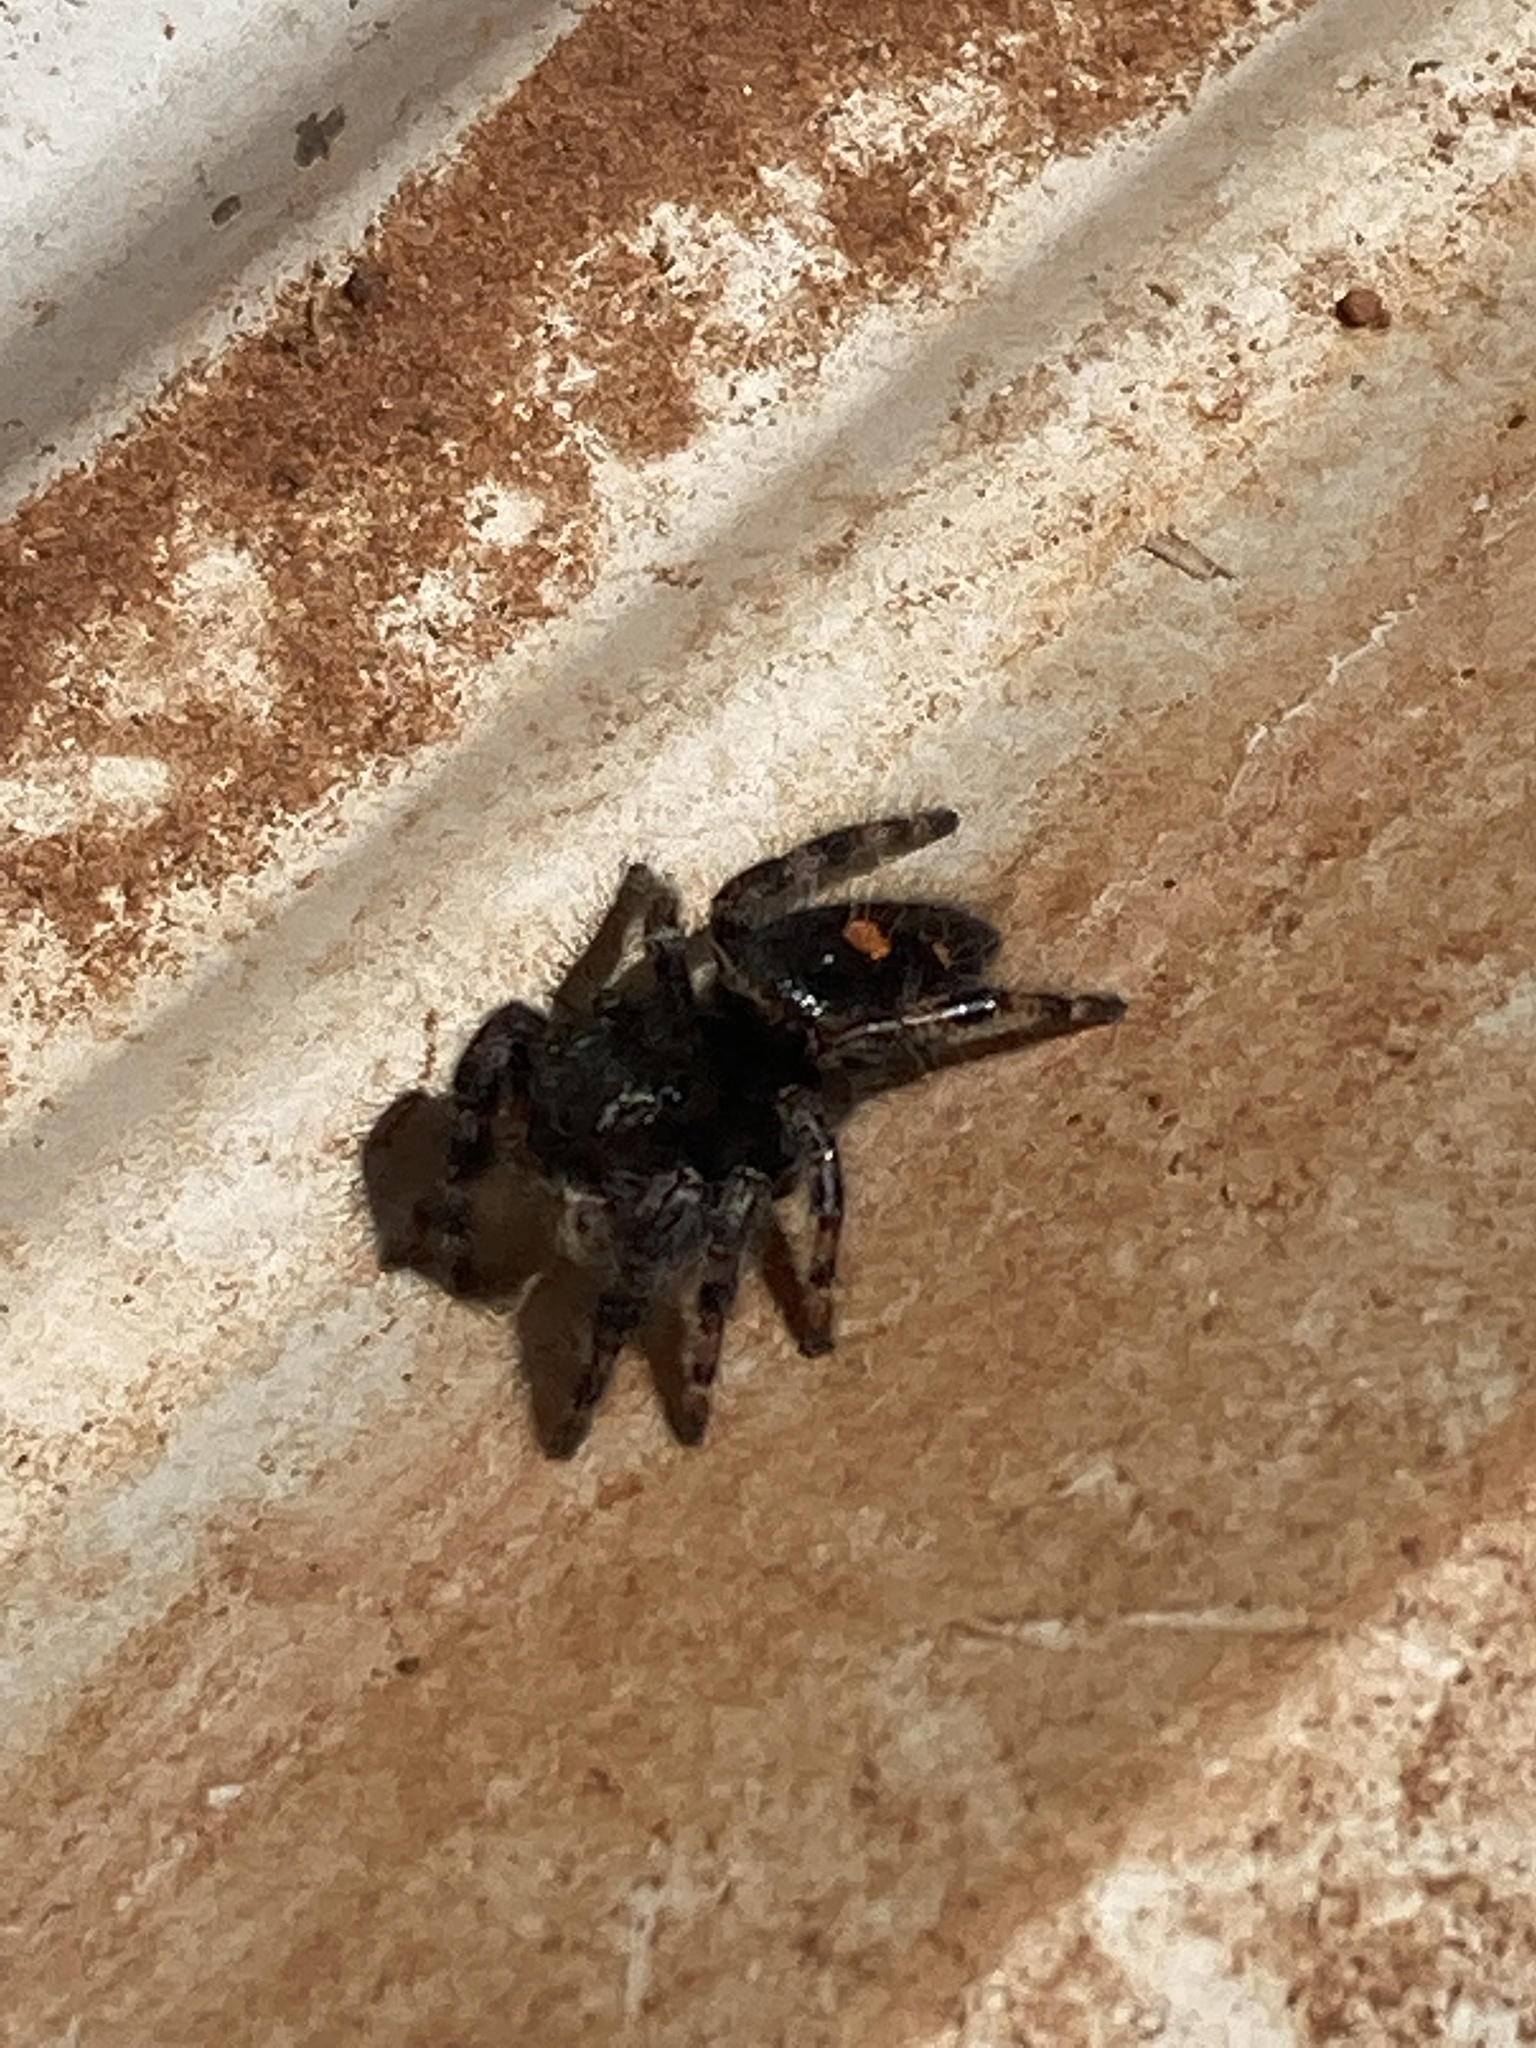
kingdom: Animalia
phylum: Arthropoda
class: Arachnida
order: Araneae
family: Salticidae
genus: Phidippus
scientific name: Phidippus audax
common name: Bold jumper
